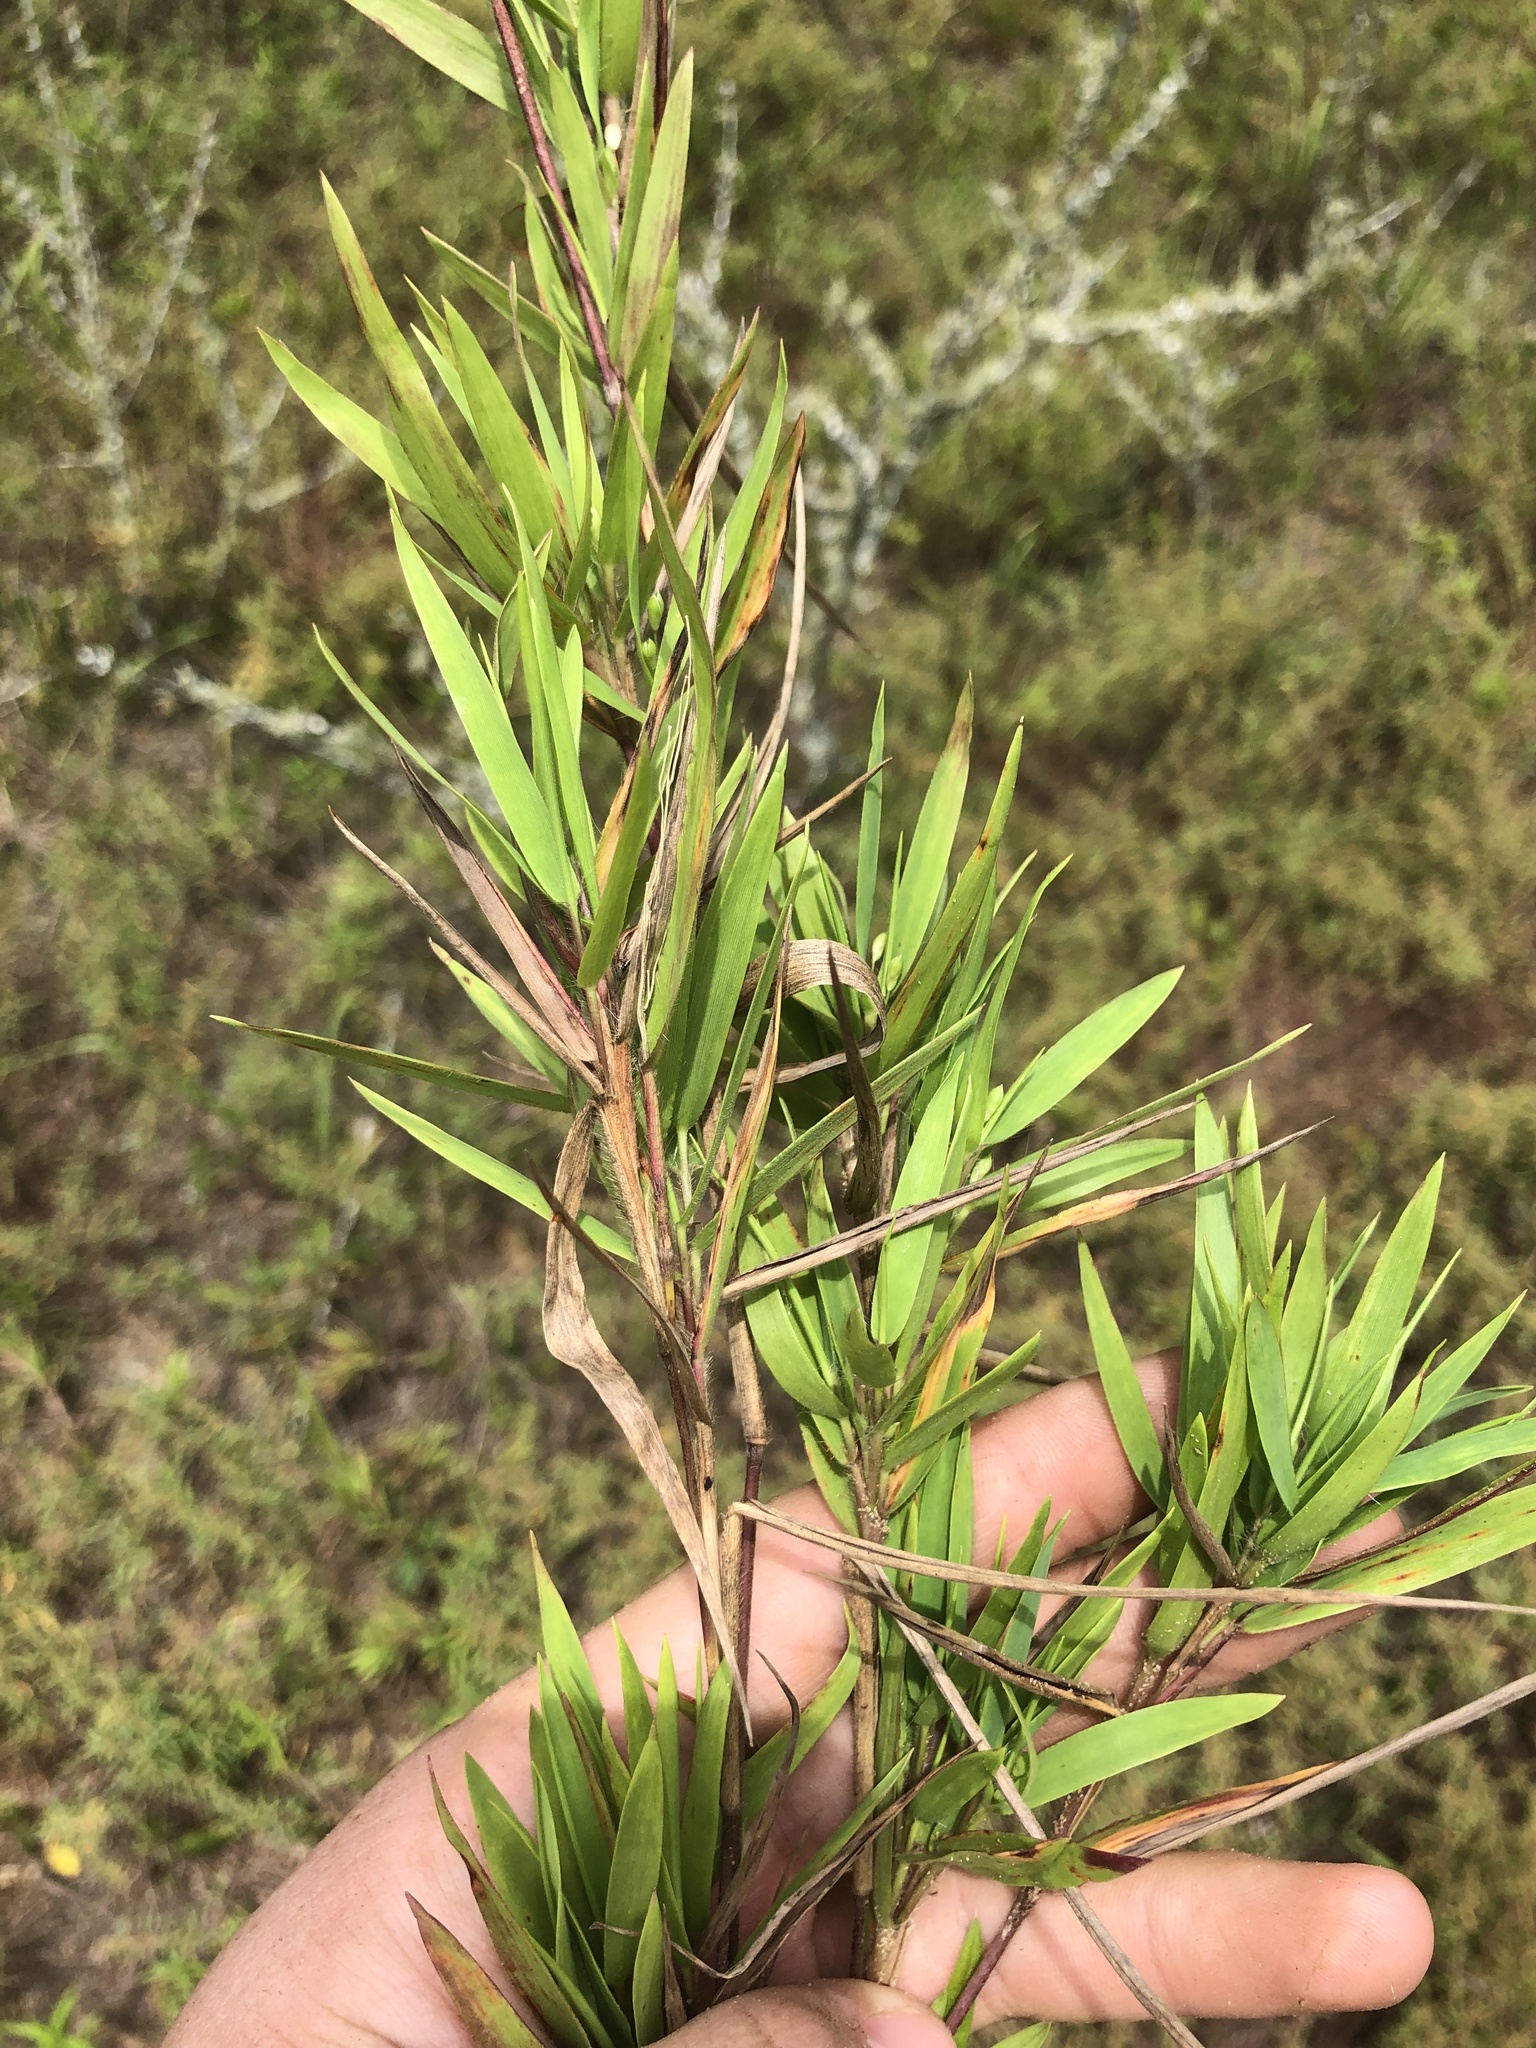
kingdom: Plantae
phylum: Tracheophyta
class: Liliopsida
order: Poales
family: Poaceae
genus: Dichanthelium
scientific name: Dichanthelium oligosanthes
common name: Few-anther obscuregrass
